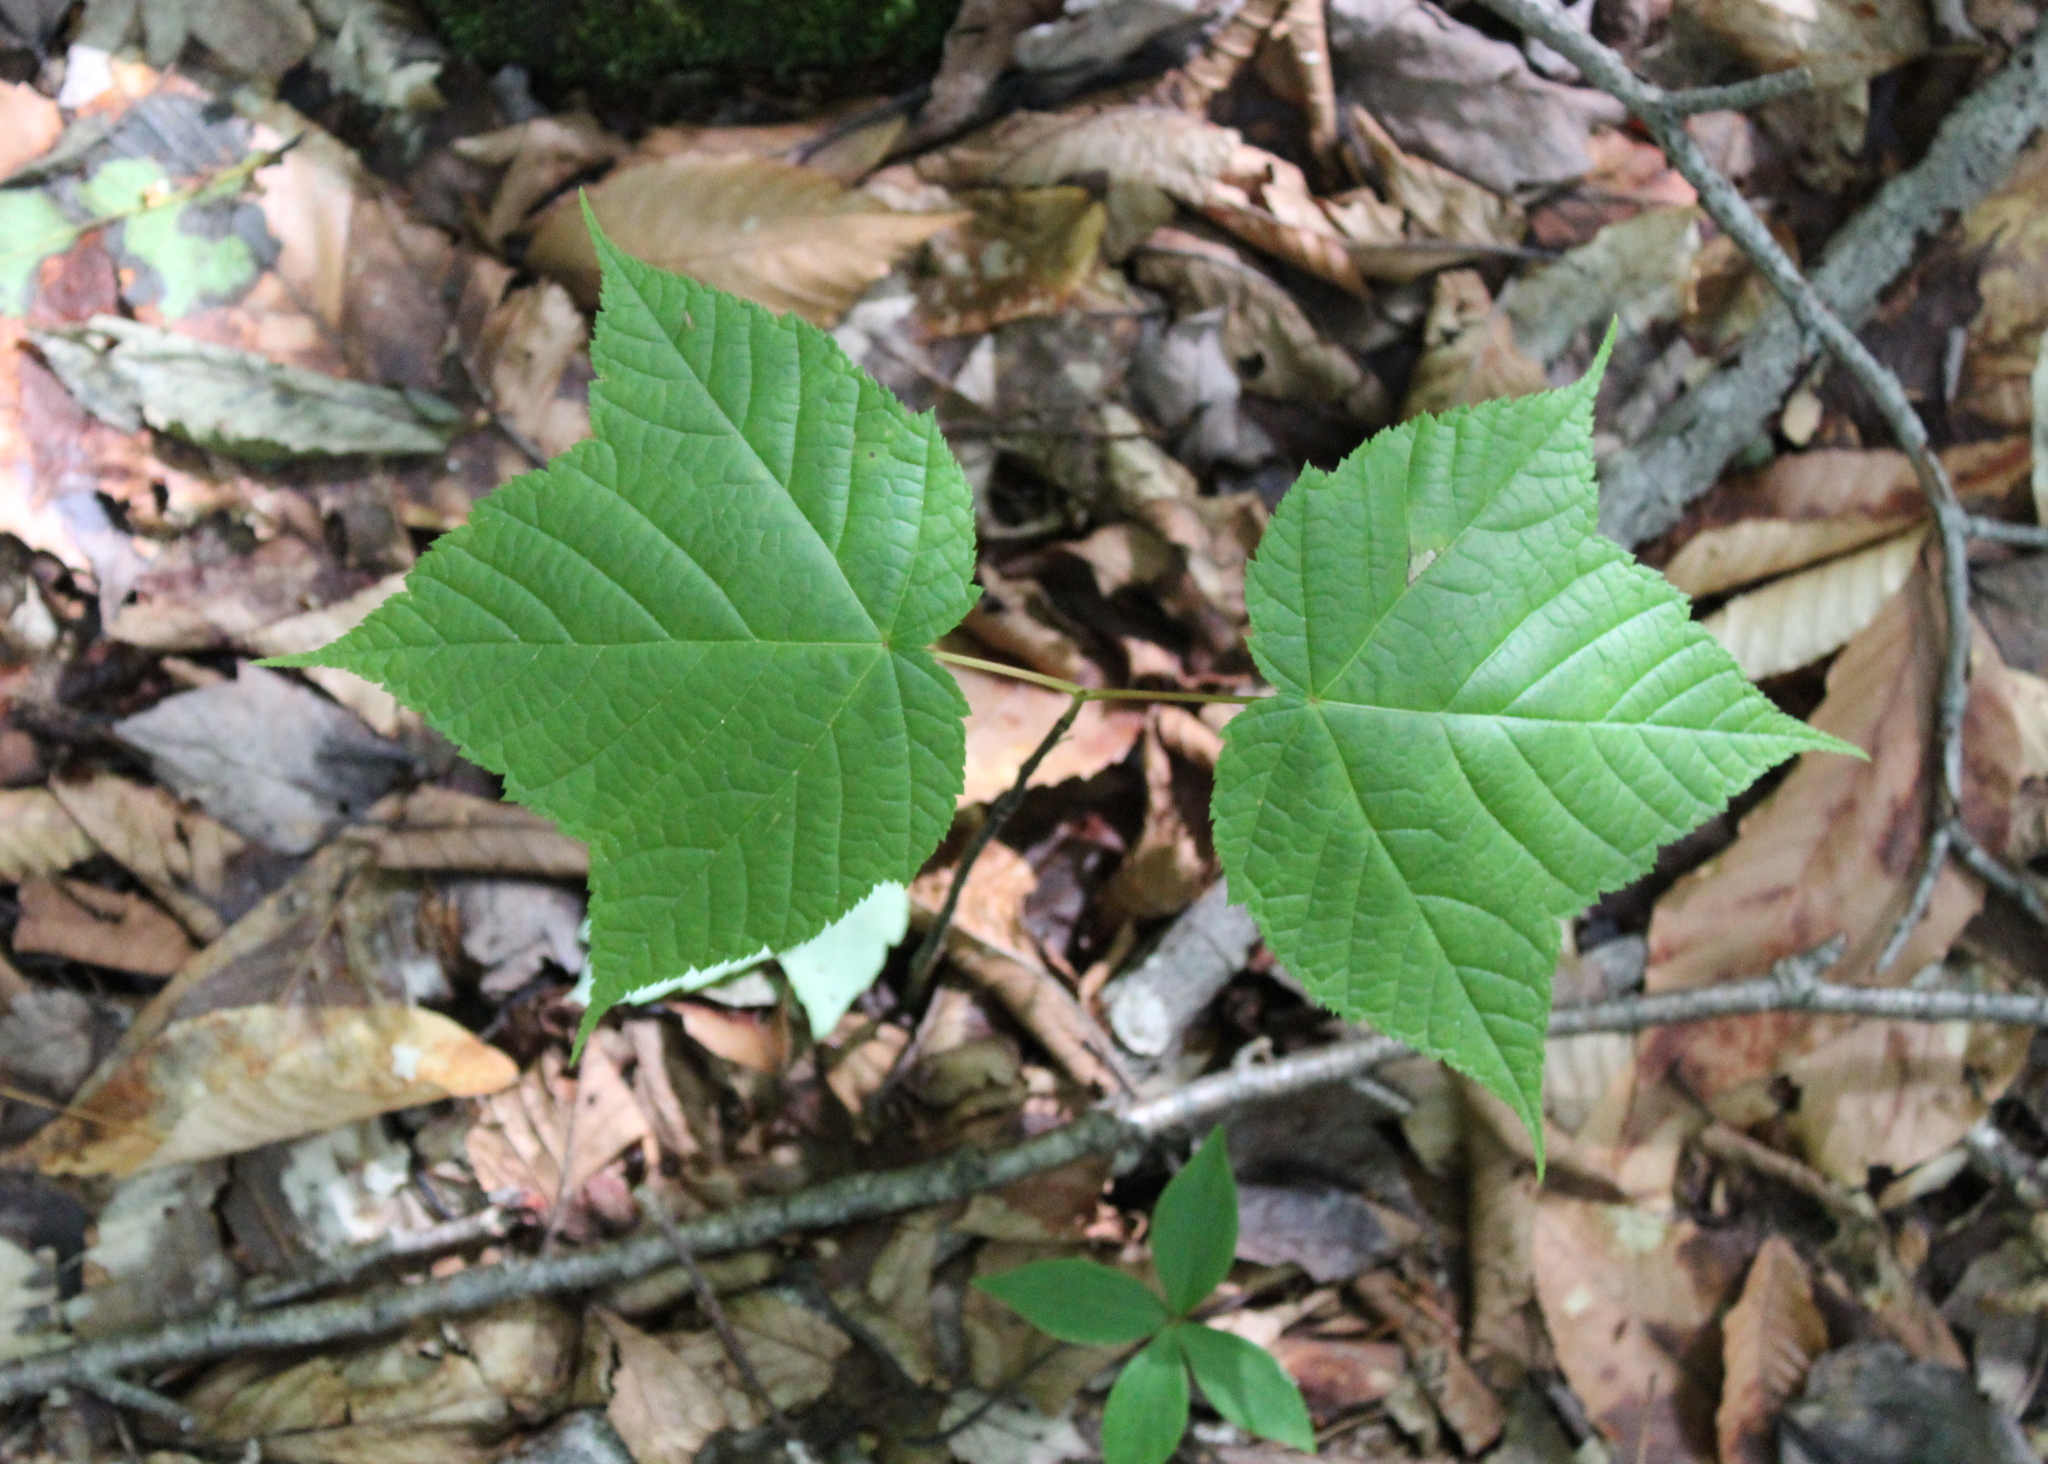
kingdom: Plantae
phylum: Tracheophyta
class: Magnoliopsida
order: Sapindales
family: Sapindaceae
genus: Acer
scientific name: Acer pensylvanicum
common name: Moosewood
